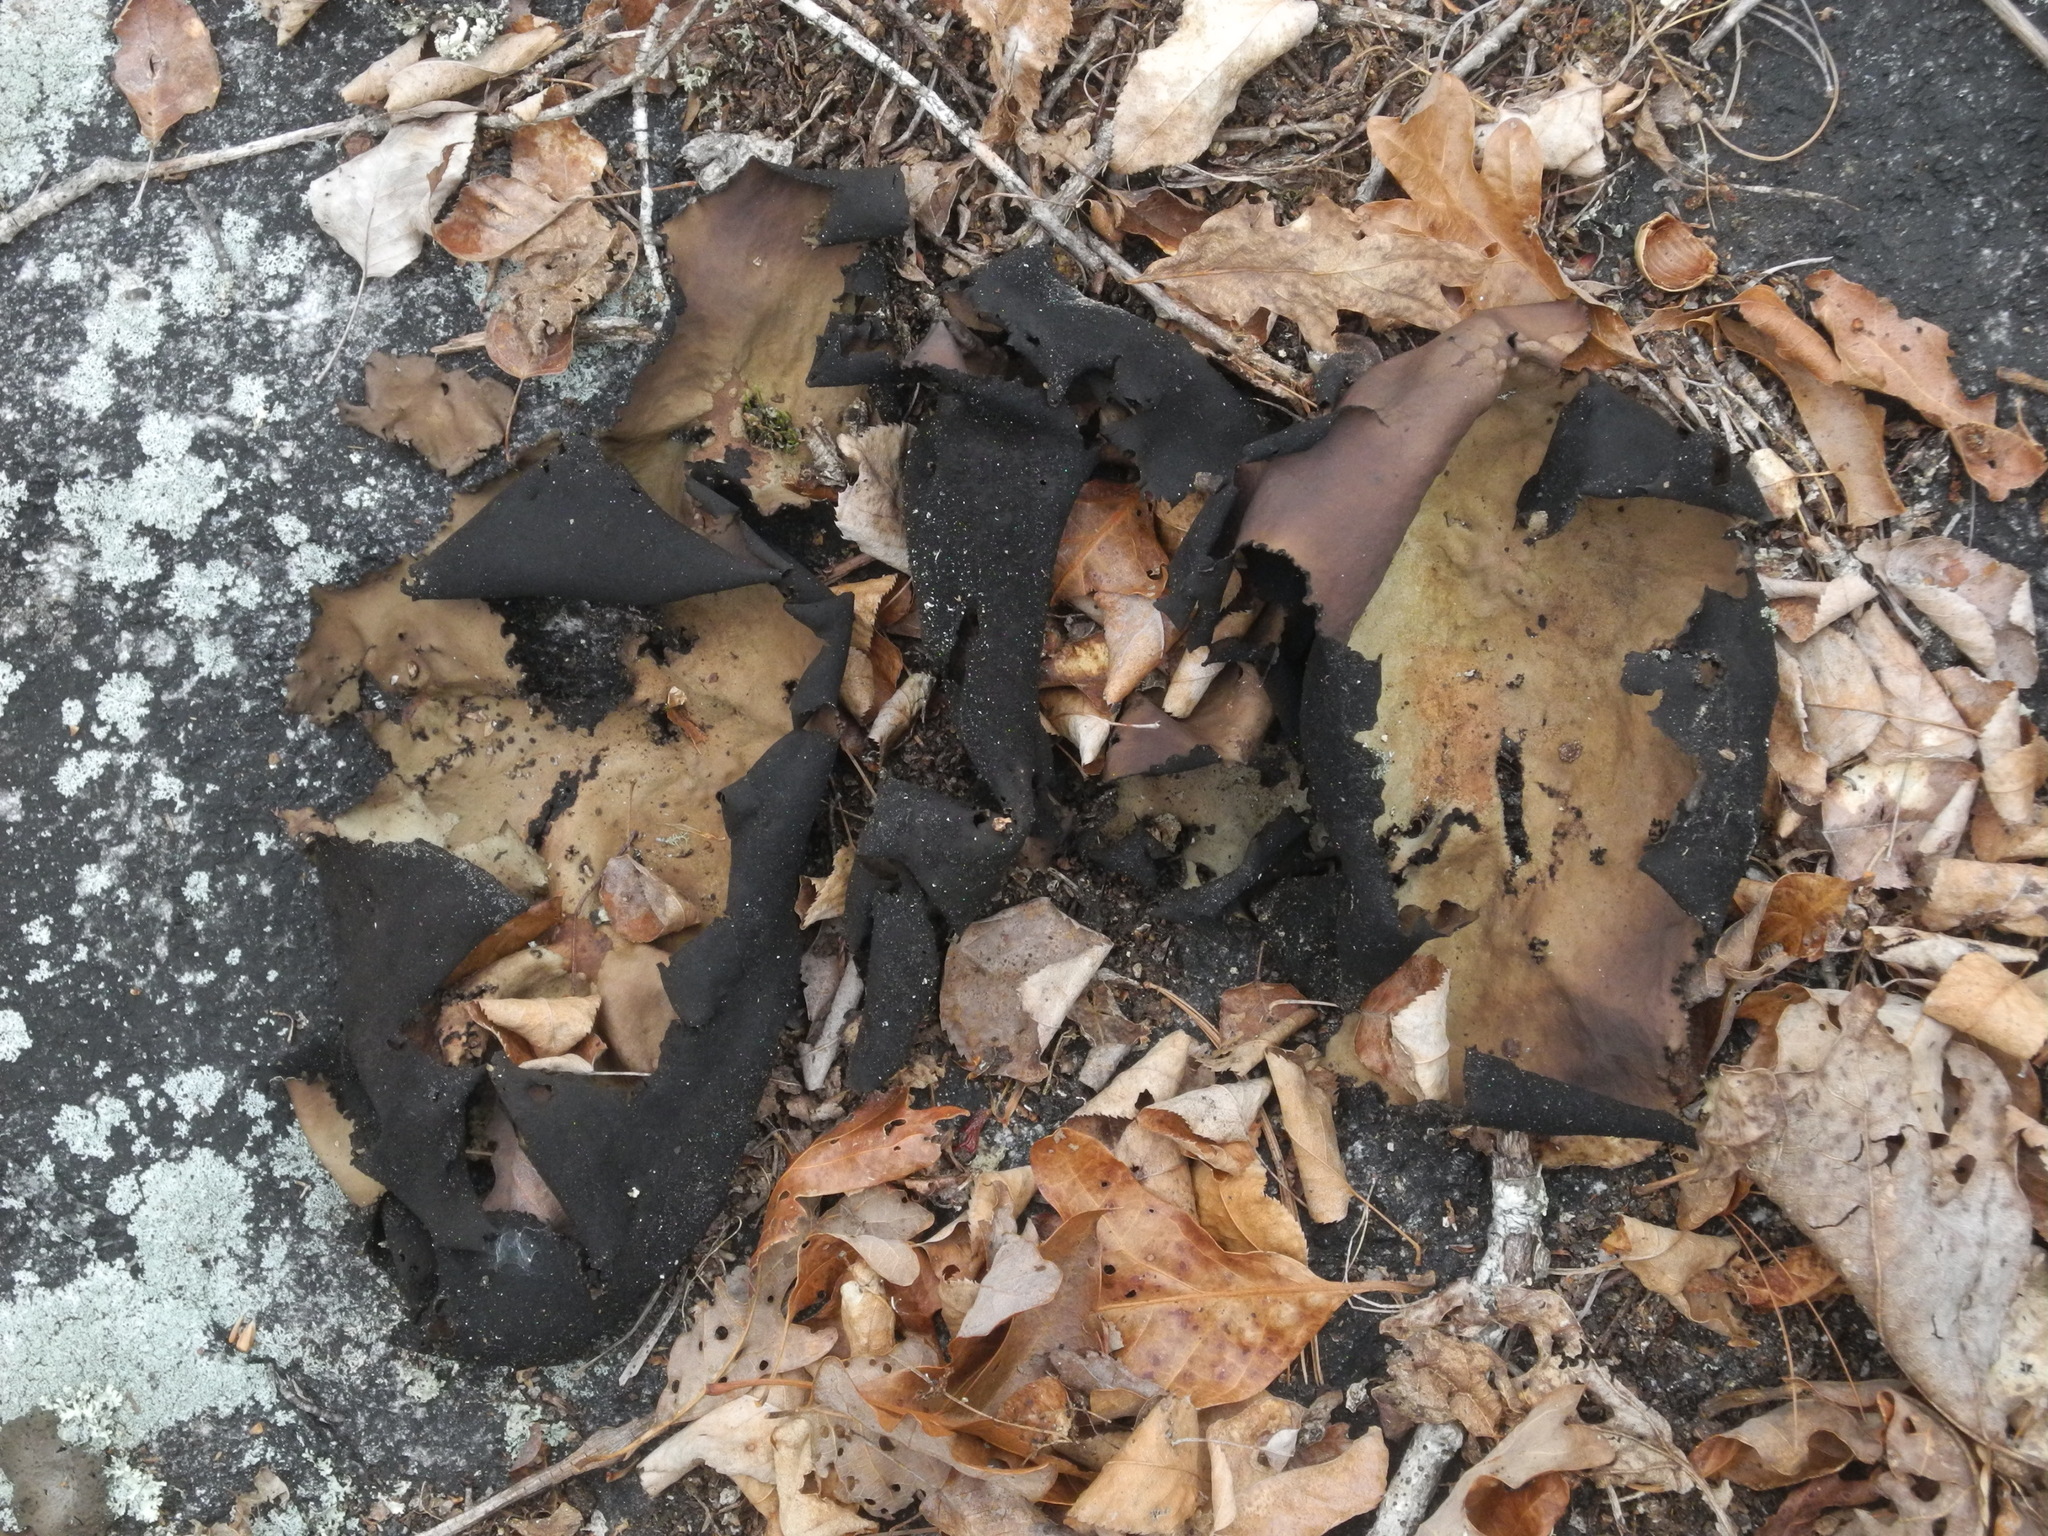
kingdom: Fungi
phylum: Ascomycota
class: Lecanoromycetes
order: Umbilicariales
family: Umbilicariaceae
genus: Umbilicaria
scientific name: Umbilicaria mammulata
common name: Smooth rock tripe
